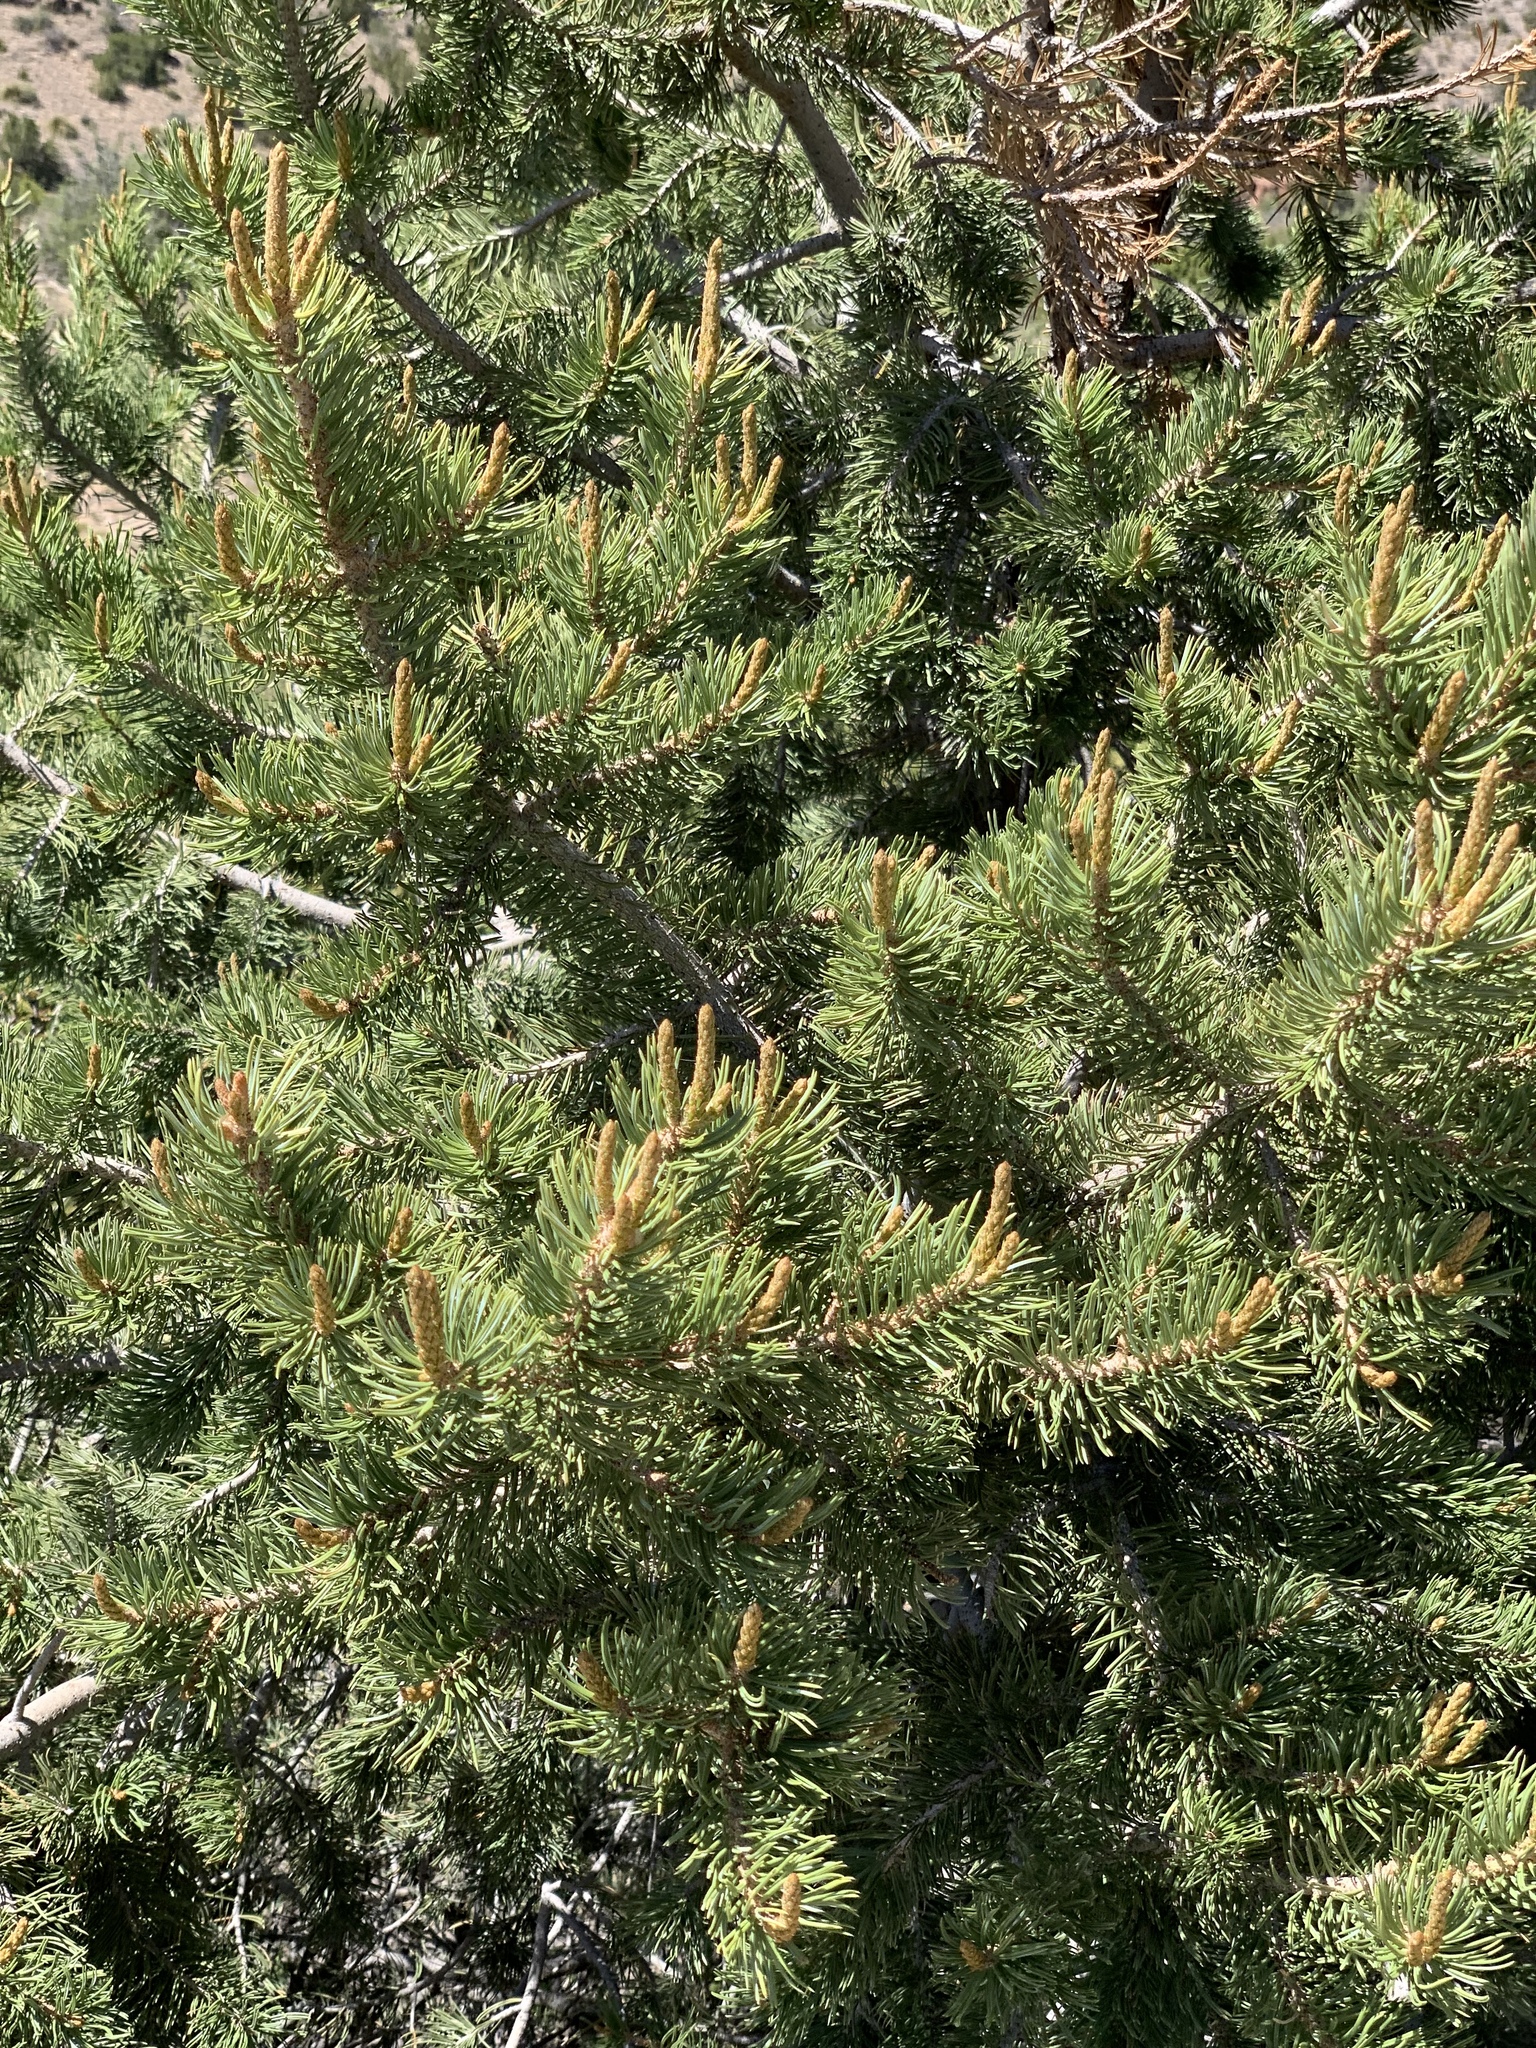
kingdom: Plantae
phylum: Tracheophyta
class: Pinopsida
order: Pinales
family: Pinaceae
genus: Pinus
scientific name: Pinus edulis
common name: Colorado pinyon
